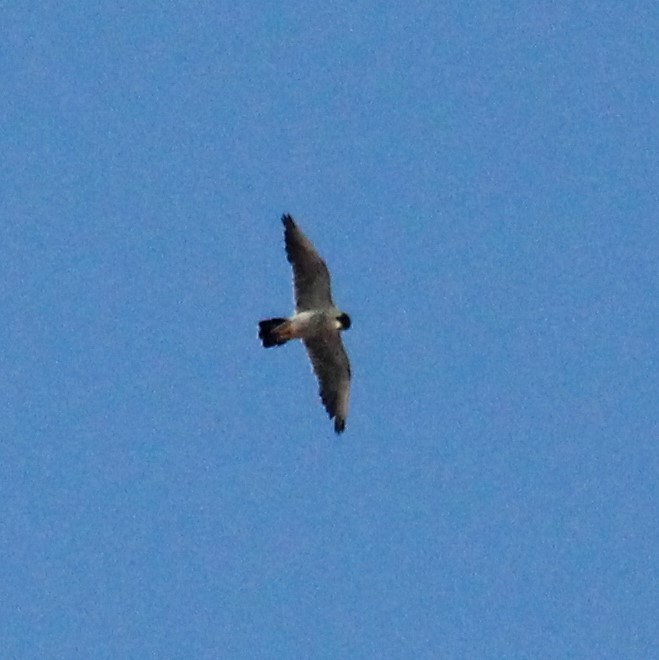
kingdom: Animalia
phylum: Chordata
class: Aves
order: Falconiformes
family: Falconidae
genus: Falco
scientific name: Falco peregrinus
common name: Peregrine falcon
